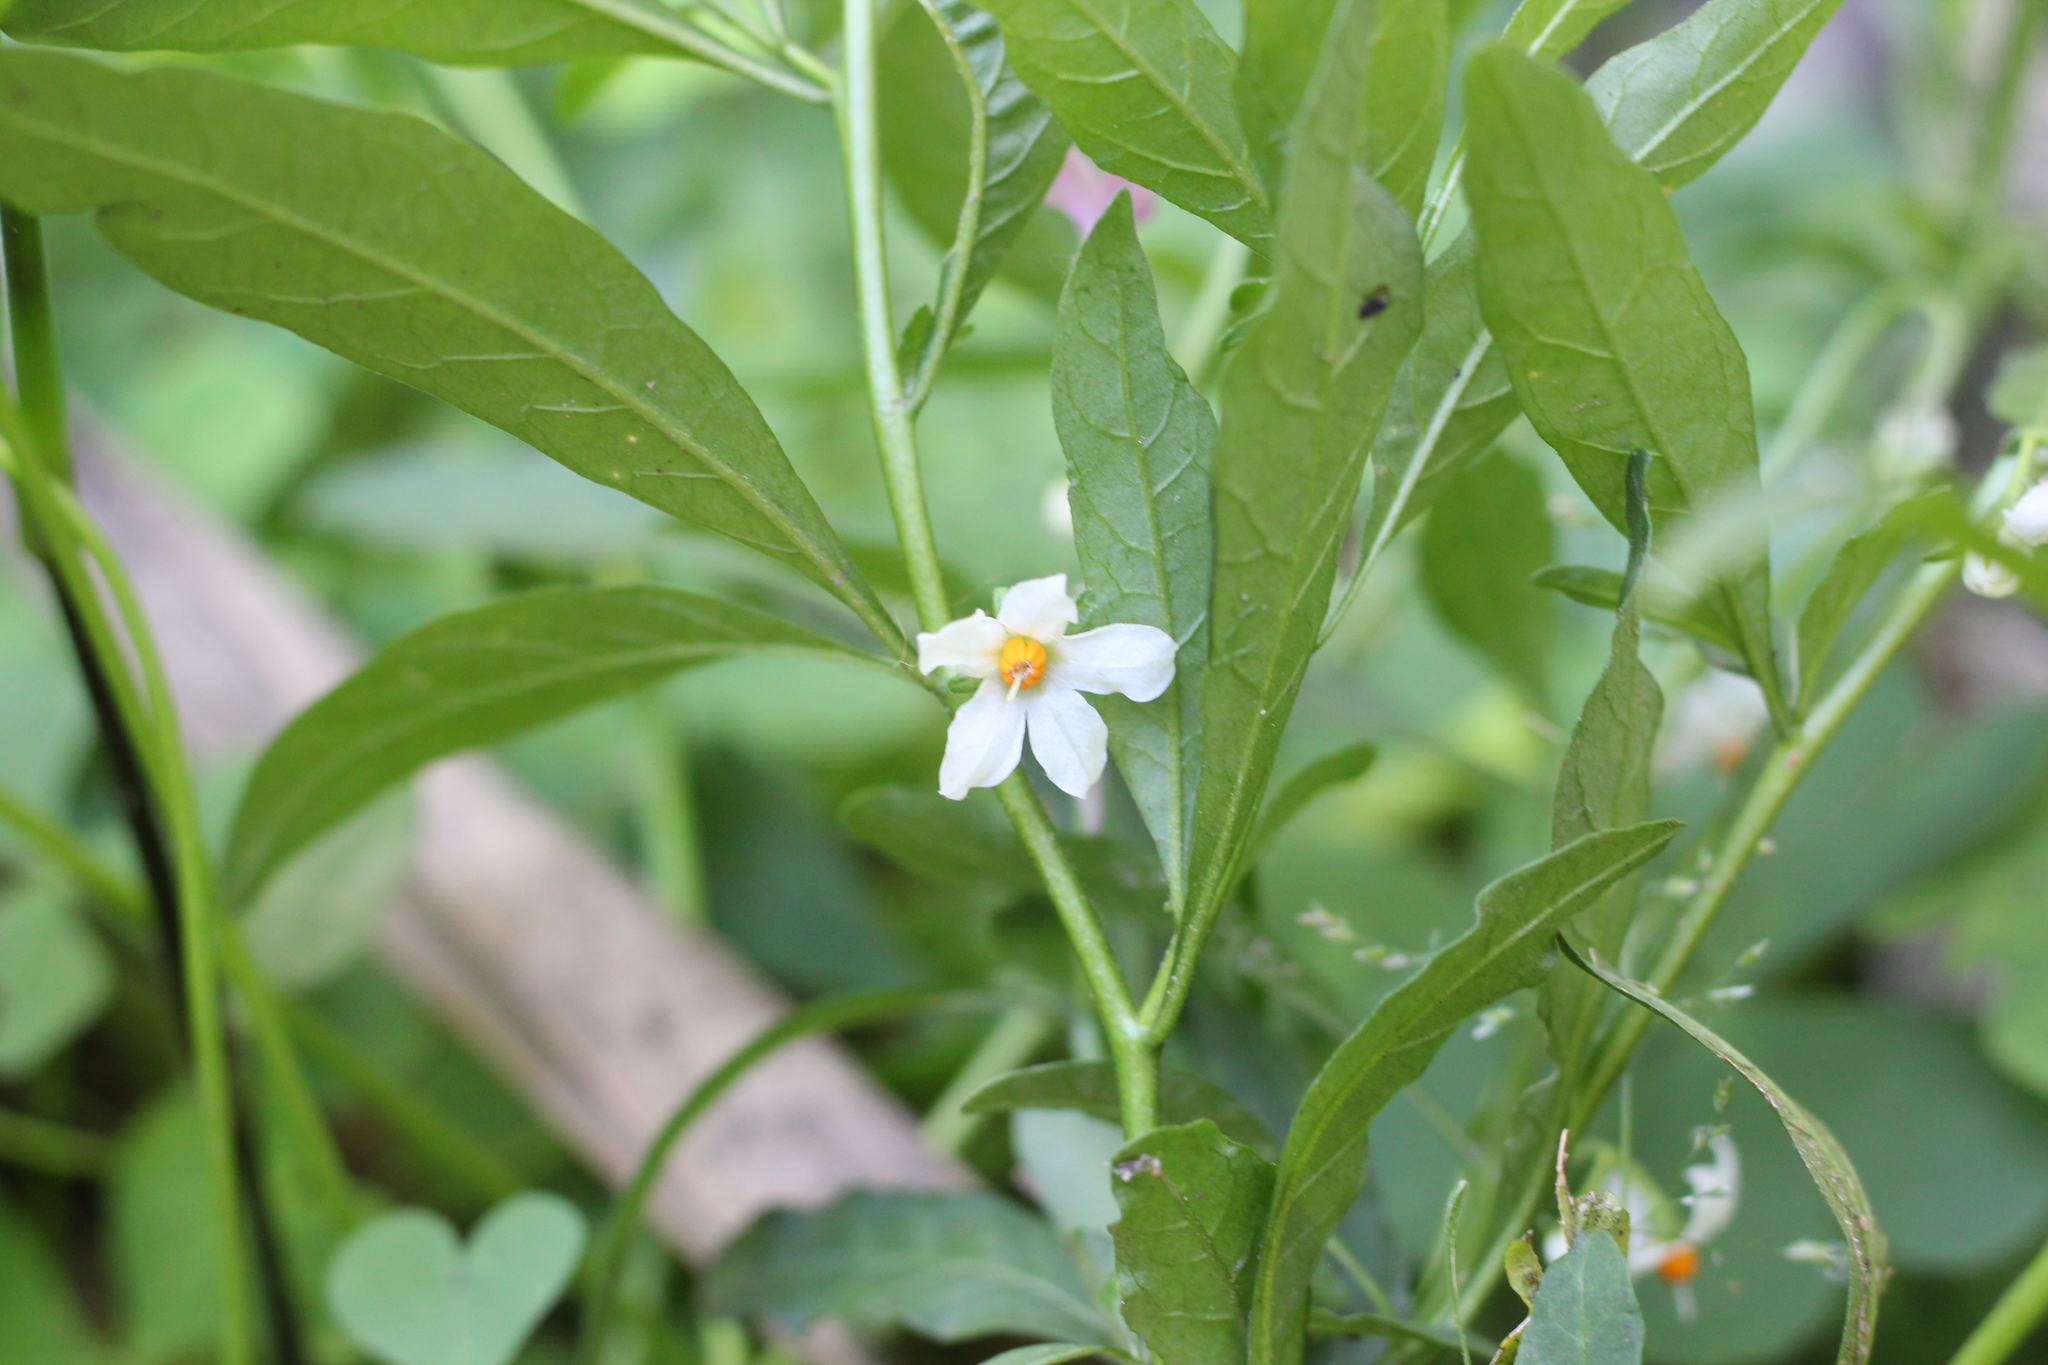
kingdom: Plantae
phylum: Tracheophyta
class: Magnoliopsida
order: Solanales
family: Solanaceae
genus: Solanum
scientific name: Solanum pseudocapsicum
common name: Jerusalem cherry
